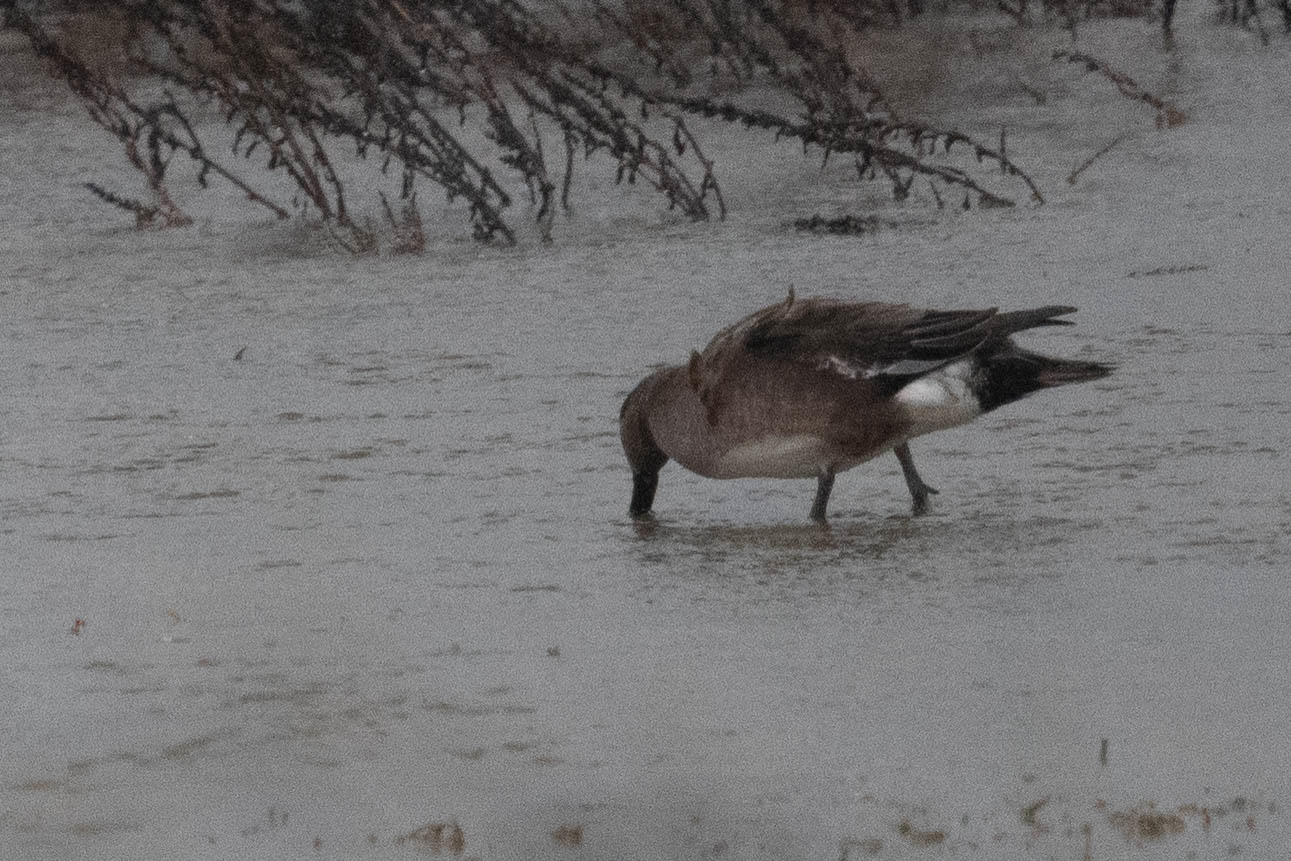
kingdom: Animalia
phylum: Chordata
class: Aves
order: Anseriformes
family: Anatidae
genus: Mareca
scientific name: Mareca americana
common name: American wigeon
